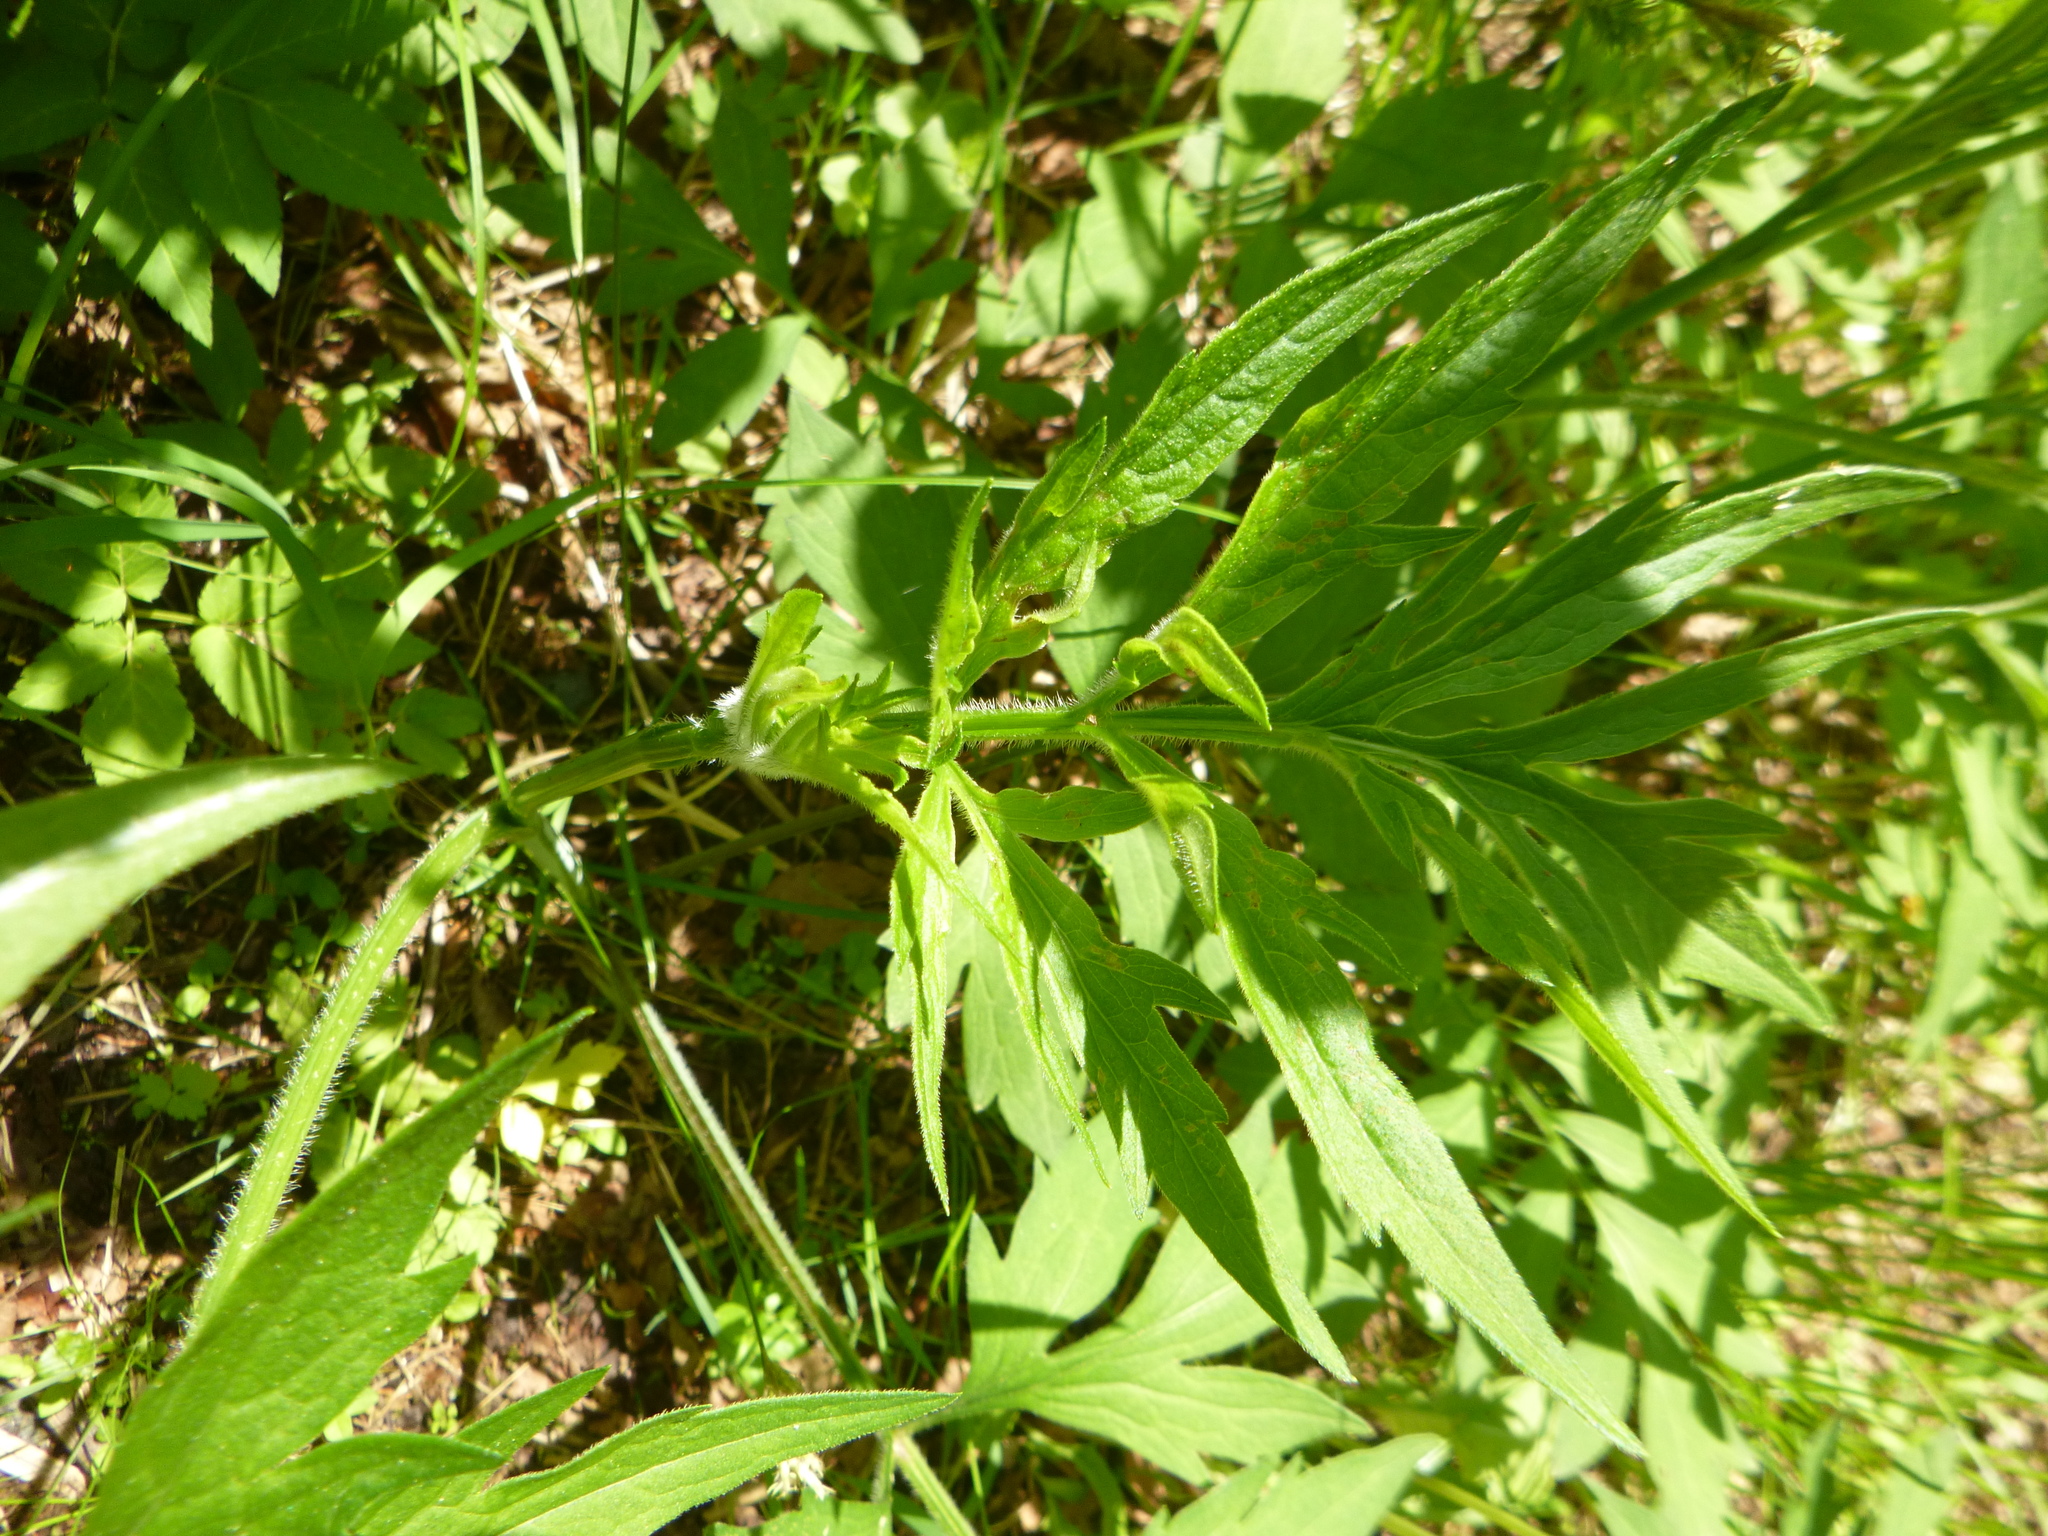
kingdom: Plantae
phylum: Tracheophyta
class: Magnoliopsida
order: Asterales
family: Asteraceae
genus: Rudbeckia
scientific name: Rudbeckia laciniata
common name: Coneflower
